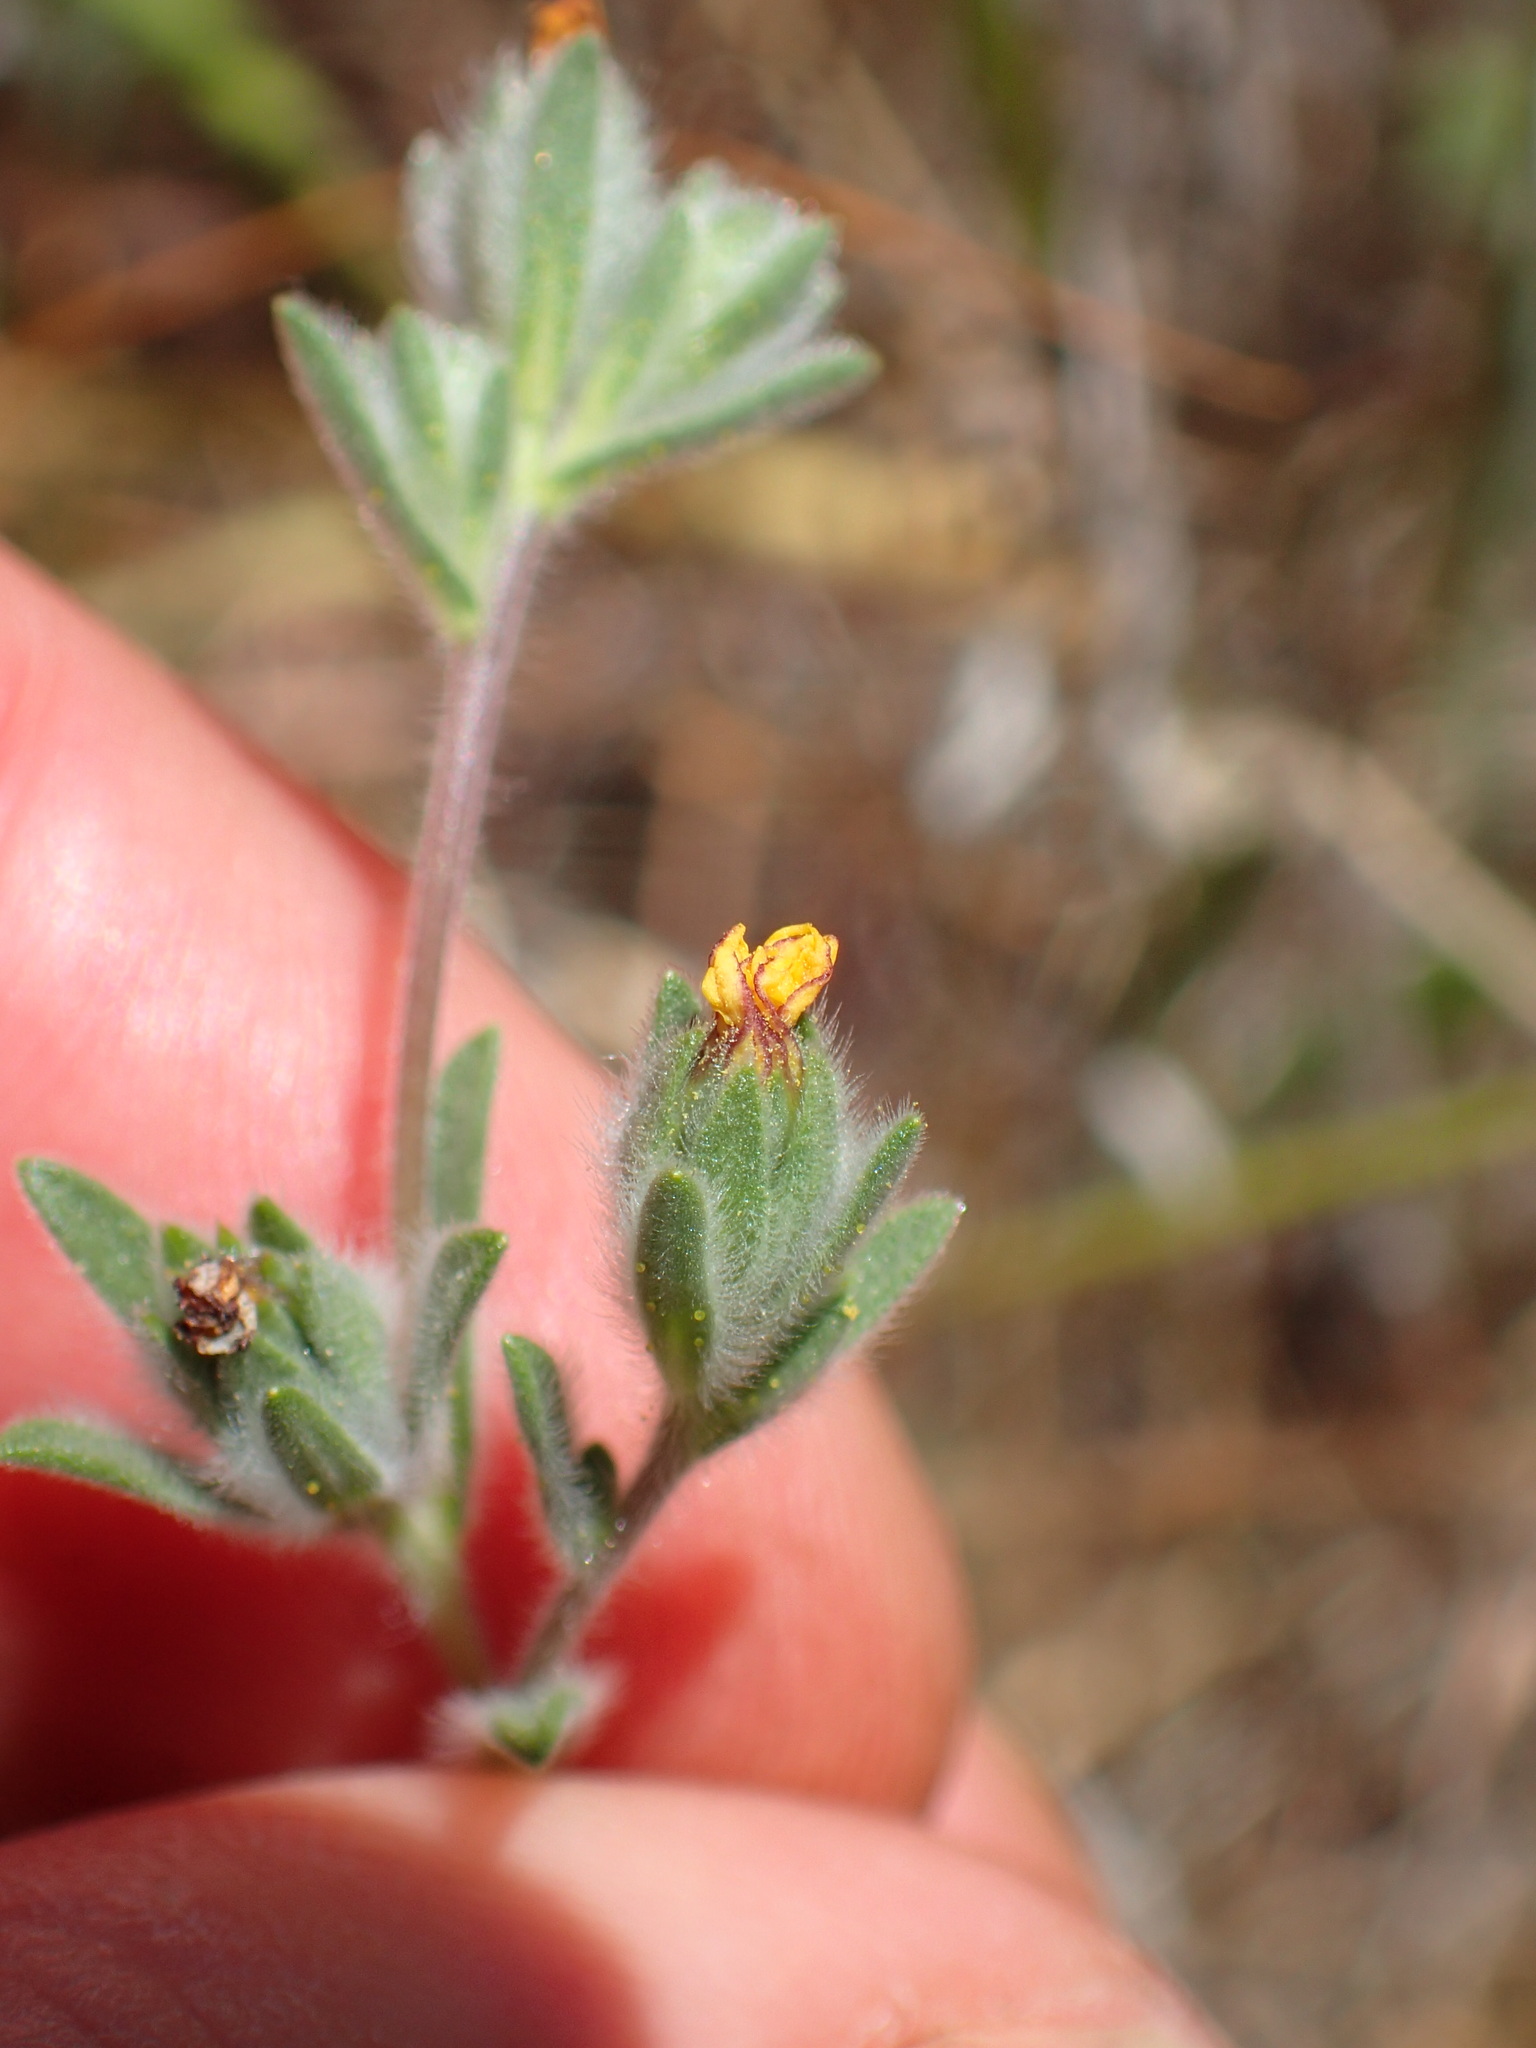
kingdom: Plantae
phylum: Tracheophyta
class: Magnoliopsida
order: Asterales
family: Asteraceae
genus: Achyrachaena
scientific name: Achyrachaena mollis
